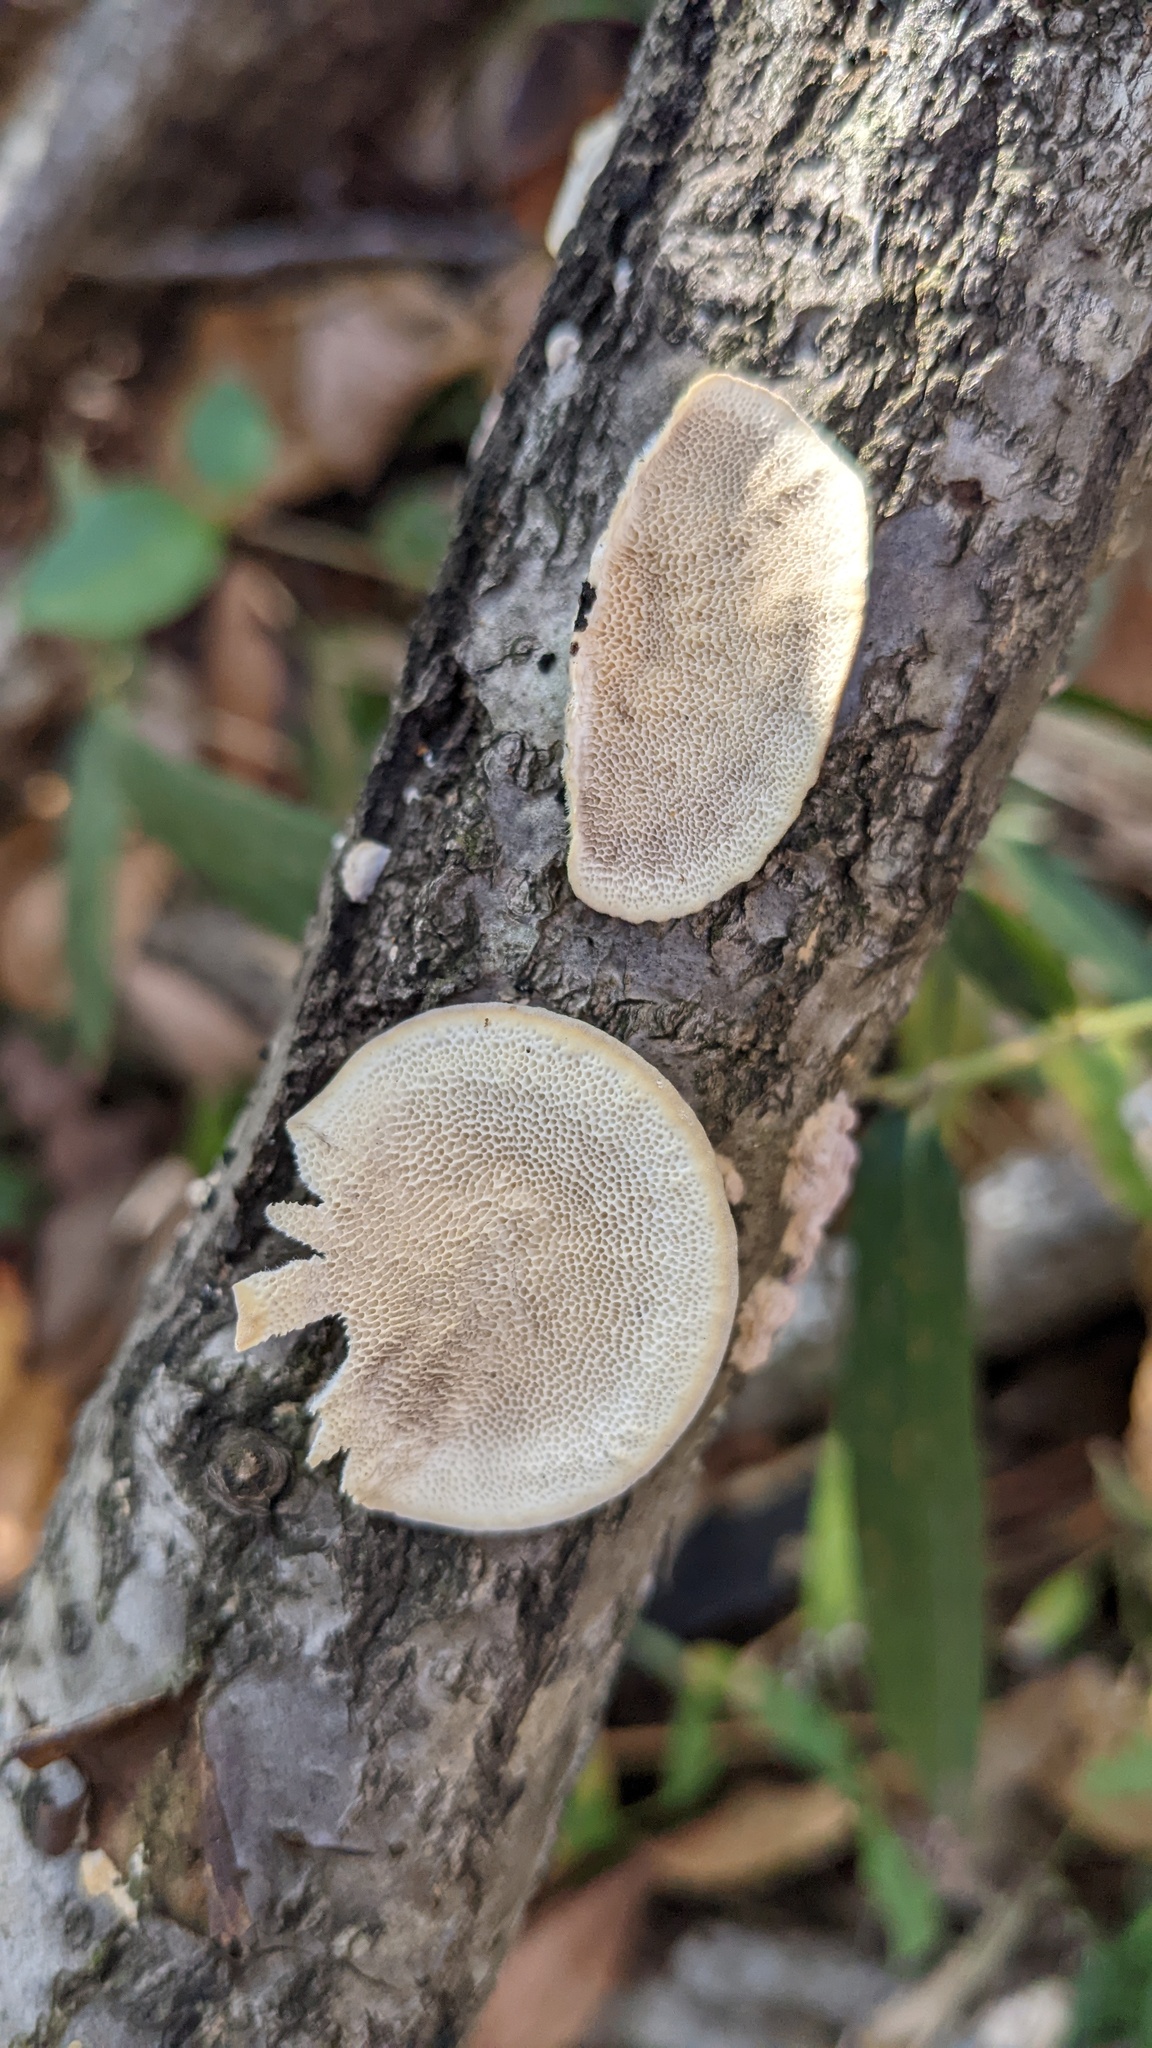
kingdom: Fungi
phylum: Basidiomycota
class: Agaricomycetes
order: Polyporales
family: Polyporaceae
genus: Trametes
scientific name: Trametes hirsuta
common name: Hairy bracket
